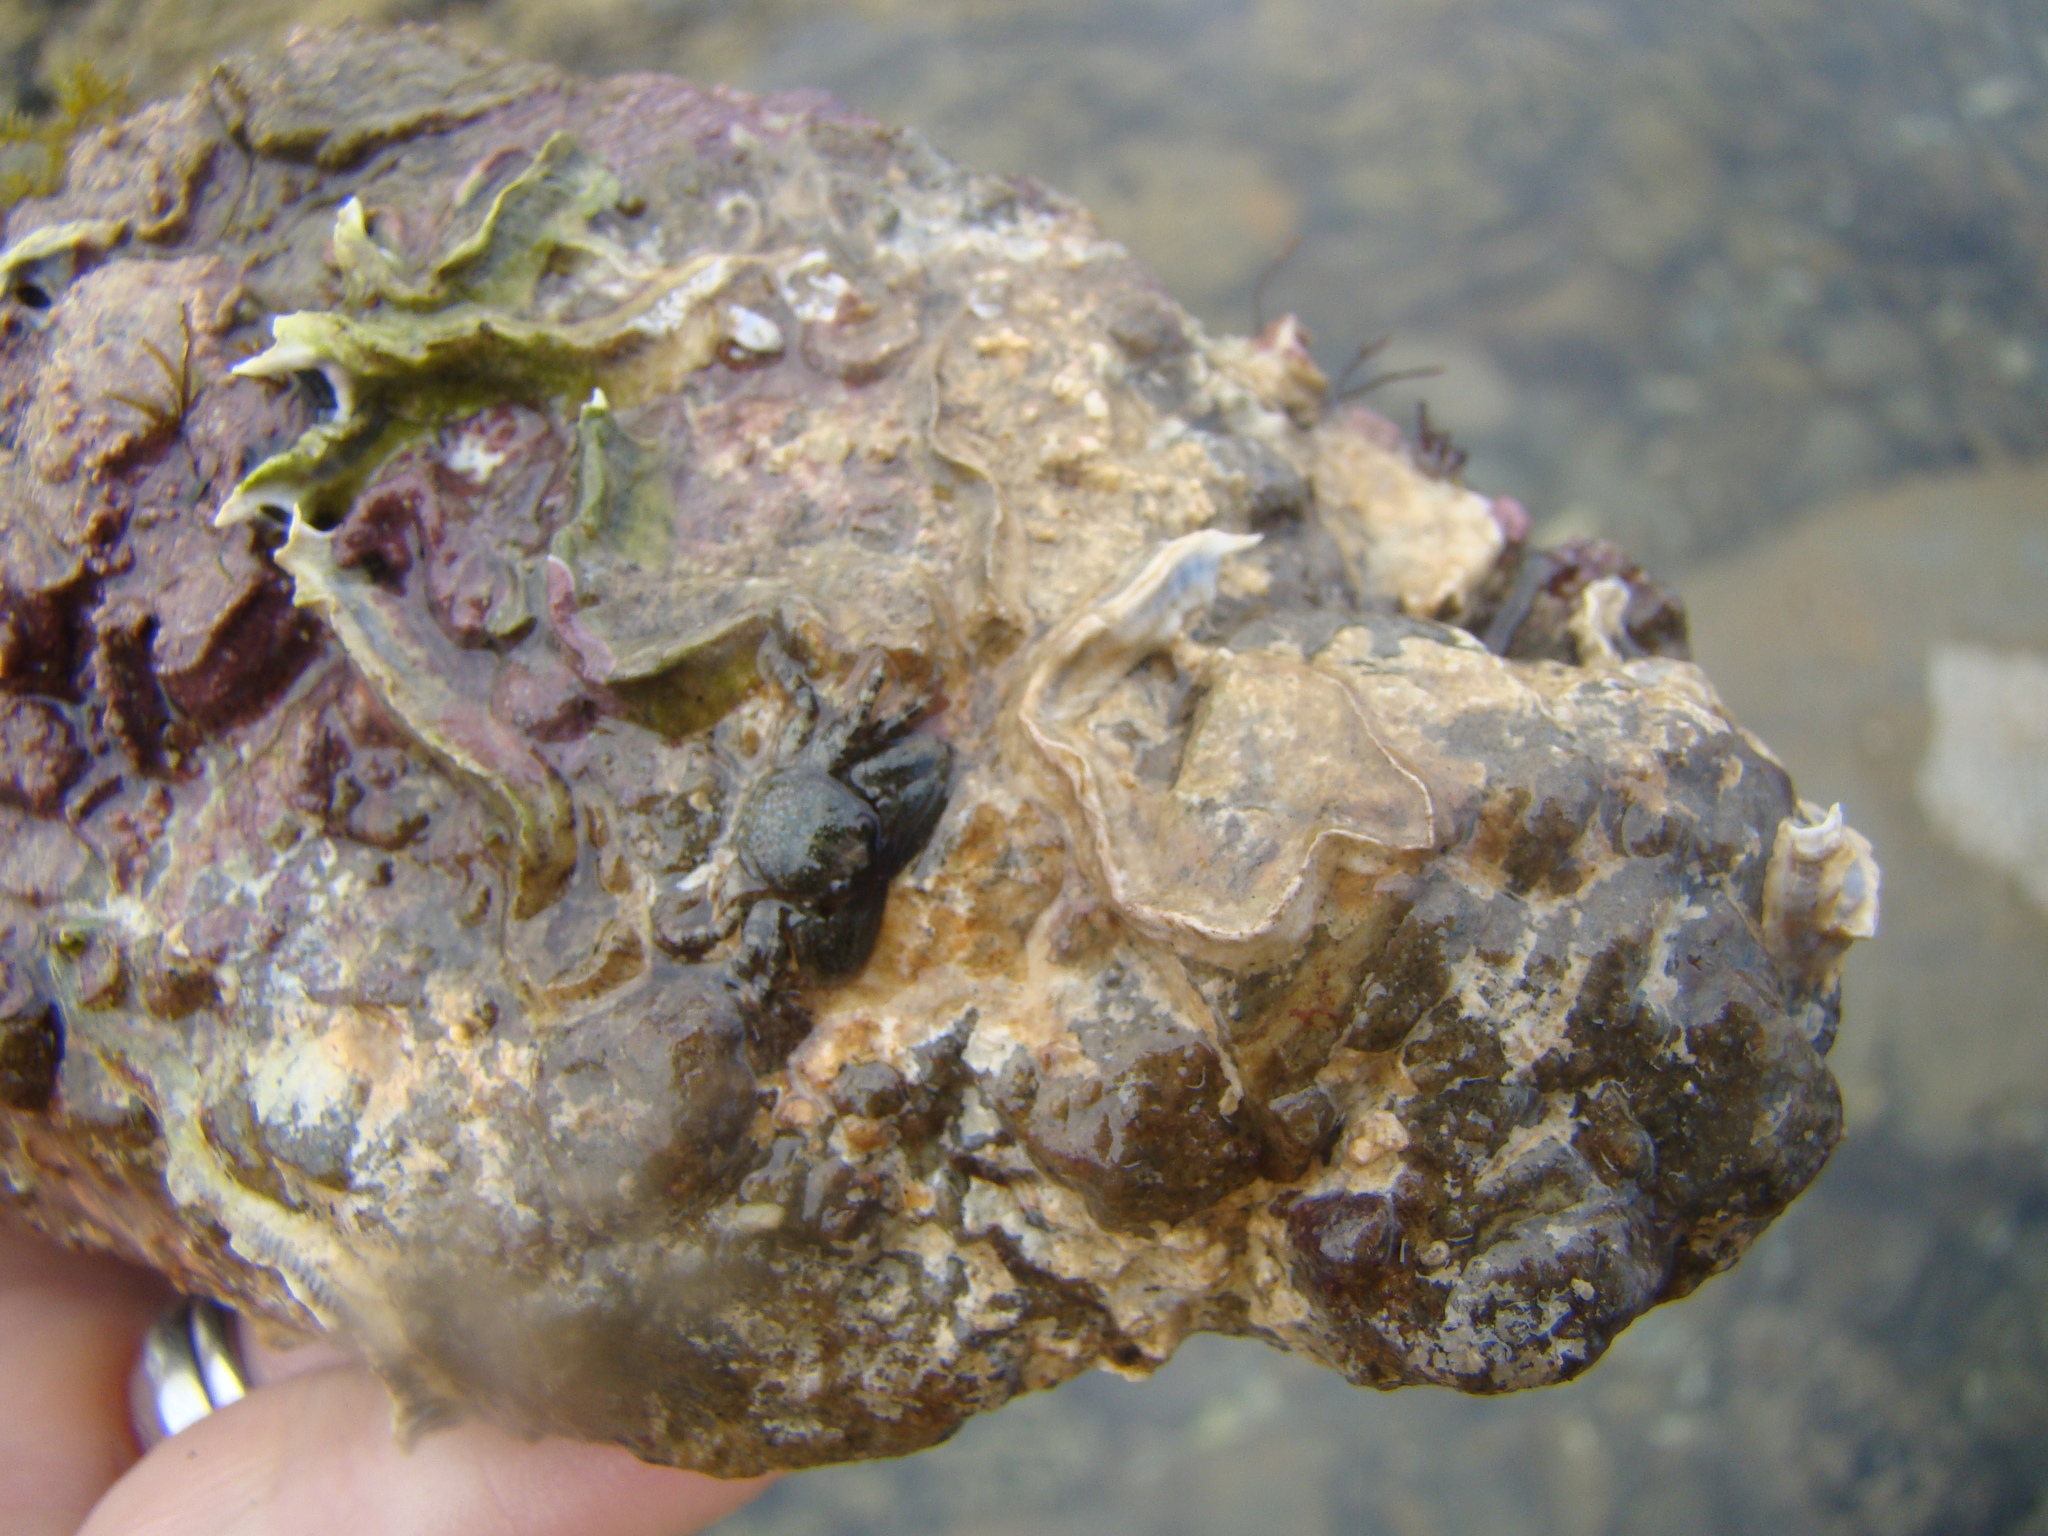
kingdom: Animalia
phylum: Arthropoda
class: Malacostraca
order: Decapoda
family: Porcellanidae
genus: Petrolisthes
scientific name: Petrolisthes elongatus
